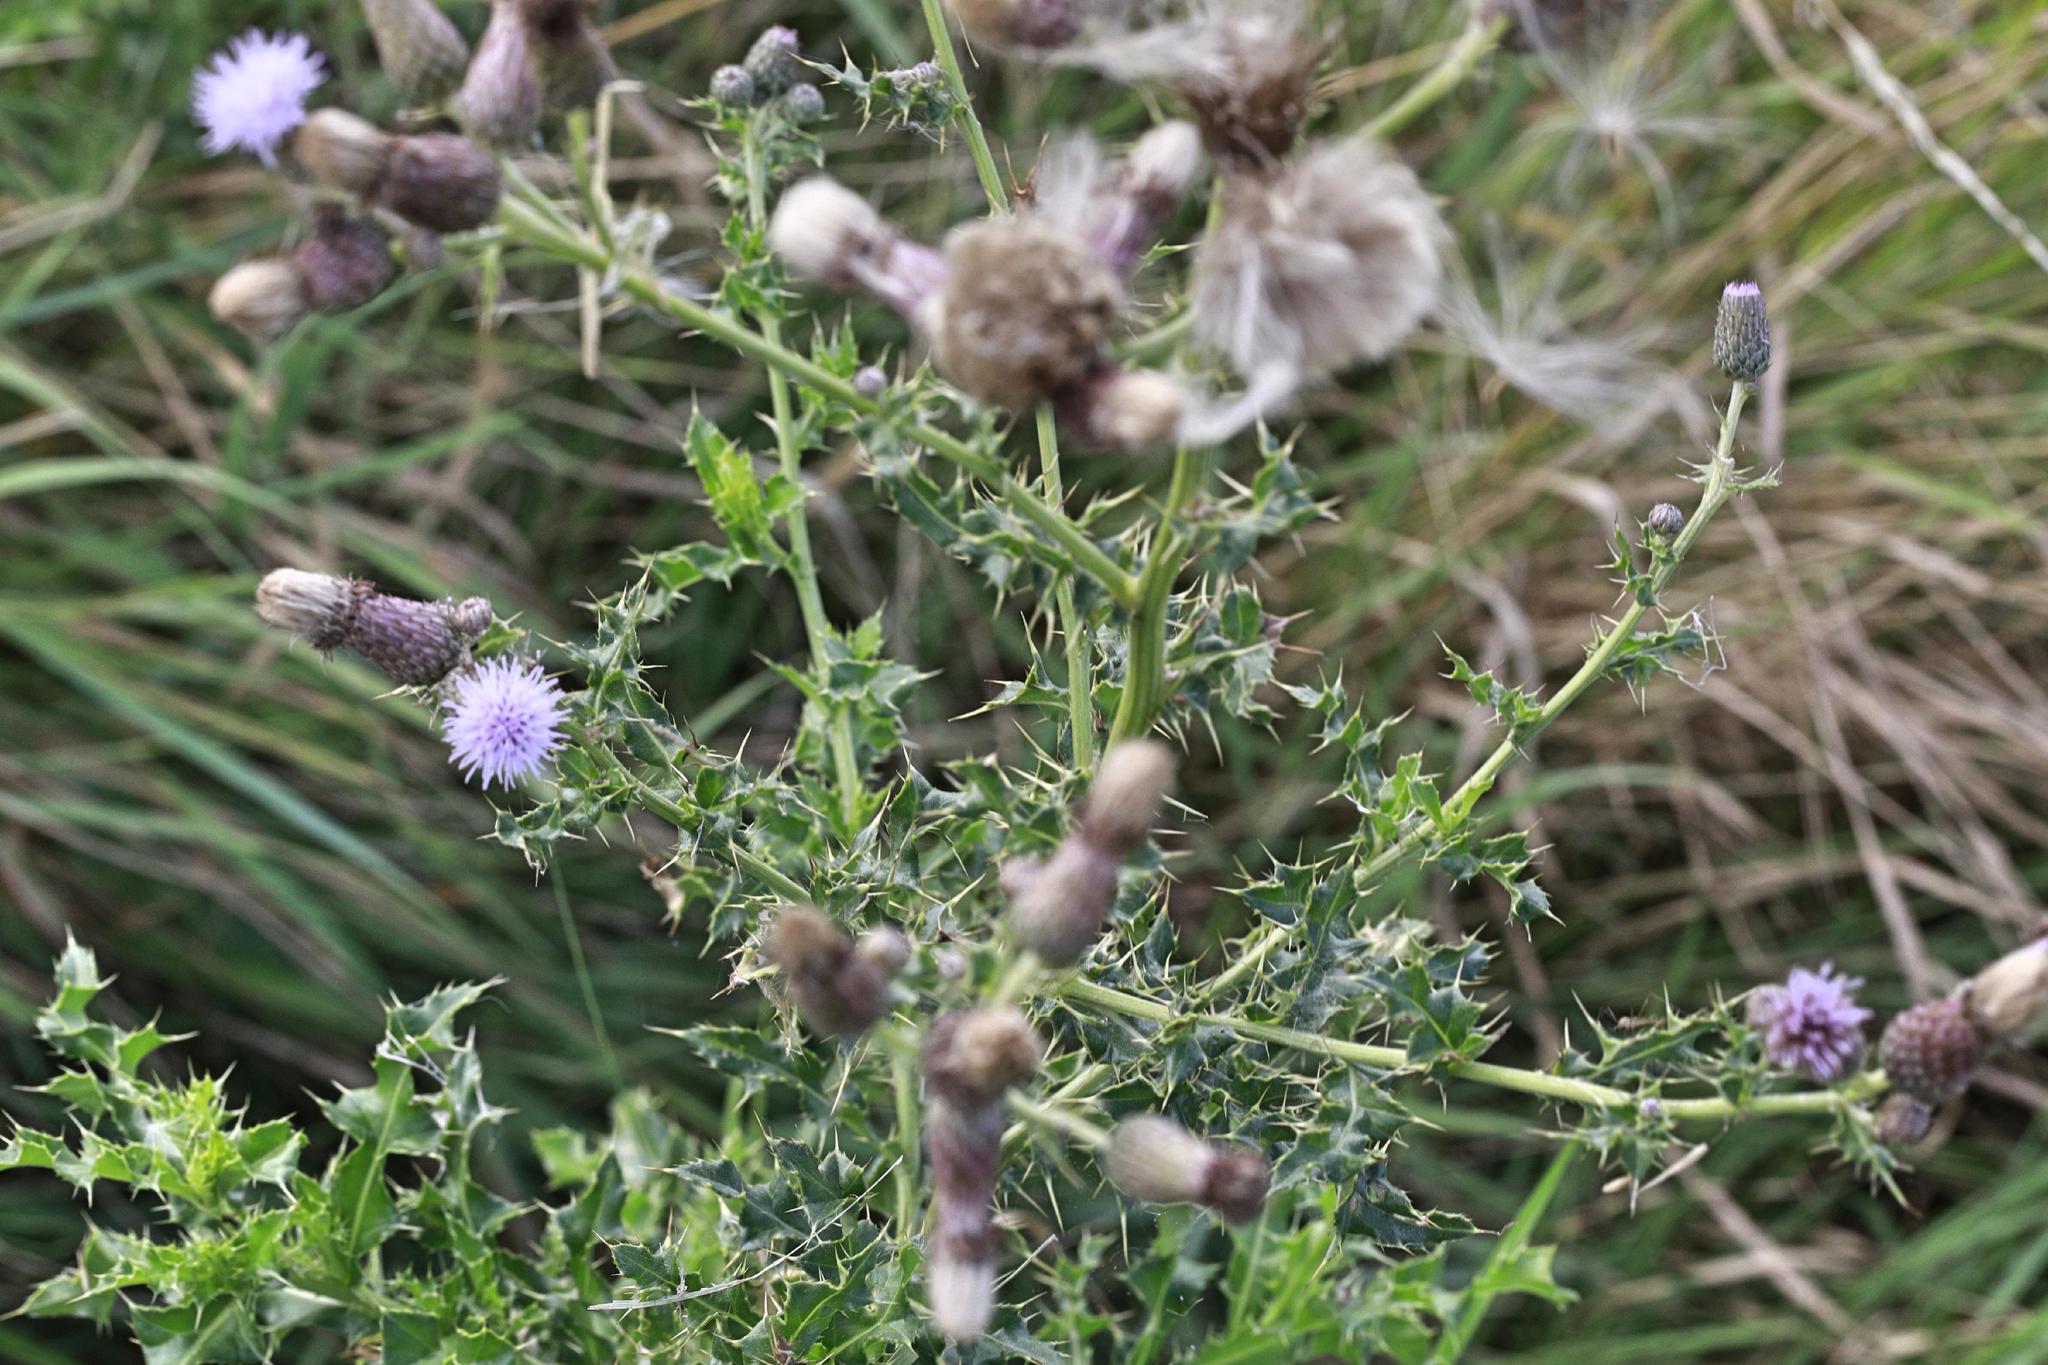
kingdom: Plantae
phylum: Tracheophyta
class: Magnoliopsida
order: Asterales
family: Asteraceae
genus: Cirsium
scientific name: Cirsium arvense
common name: Creeping thistle
